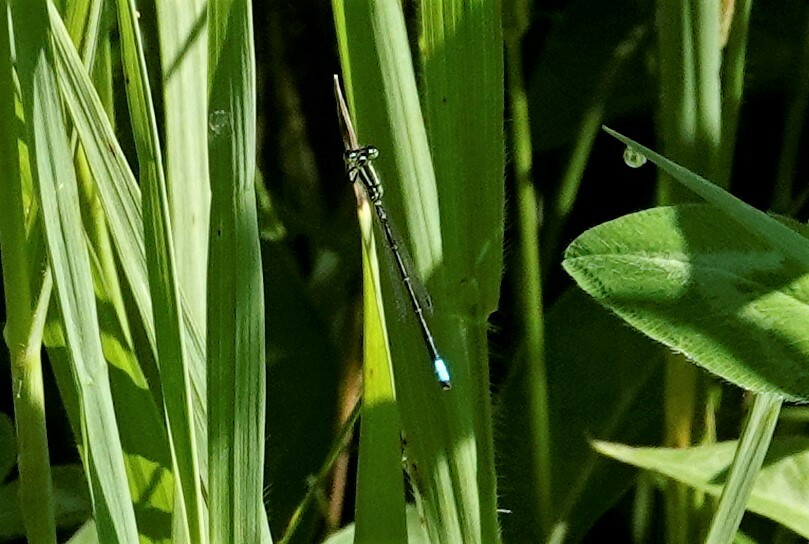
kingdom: Animalia
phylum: Arthropoda
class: Insecta
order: Odonata
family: Coenagrionidae
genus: Ischnura
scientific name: Ischnura verticalis
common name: Eastern forktail
